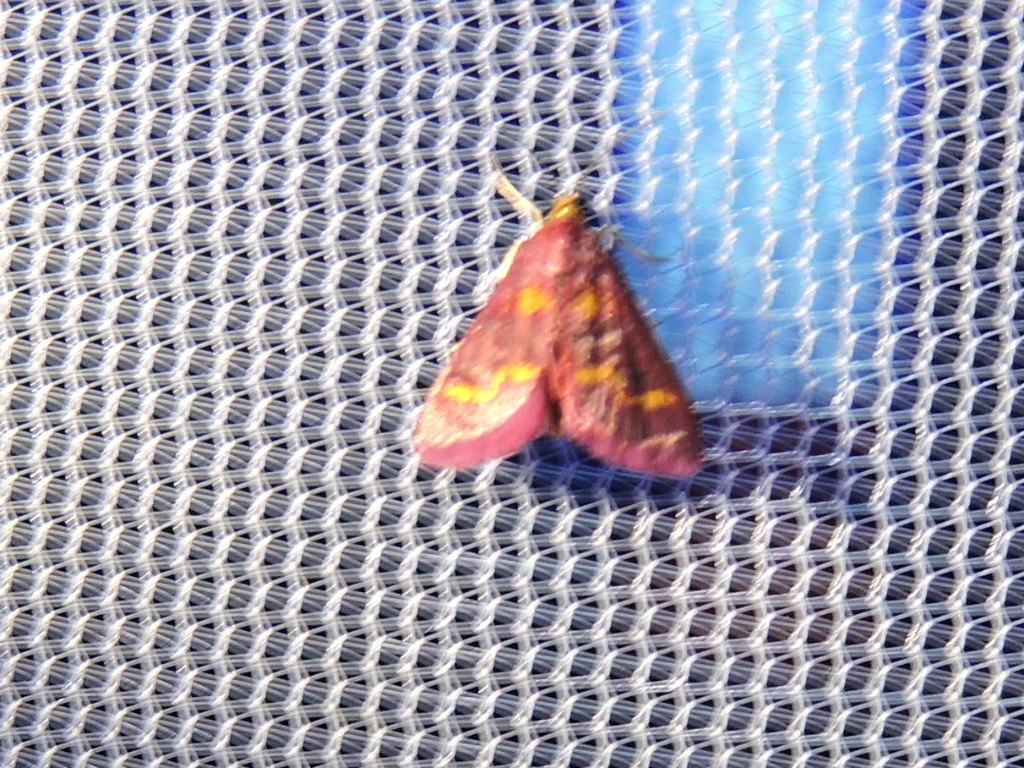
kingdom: Animalia
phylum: Arthropoda
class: Insecta
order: Lepidoptera
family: Crambidae
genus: Pyrausta
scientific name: Pyrausta tyralis
